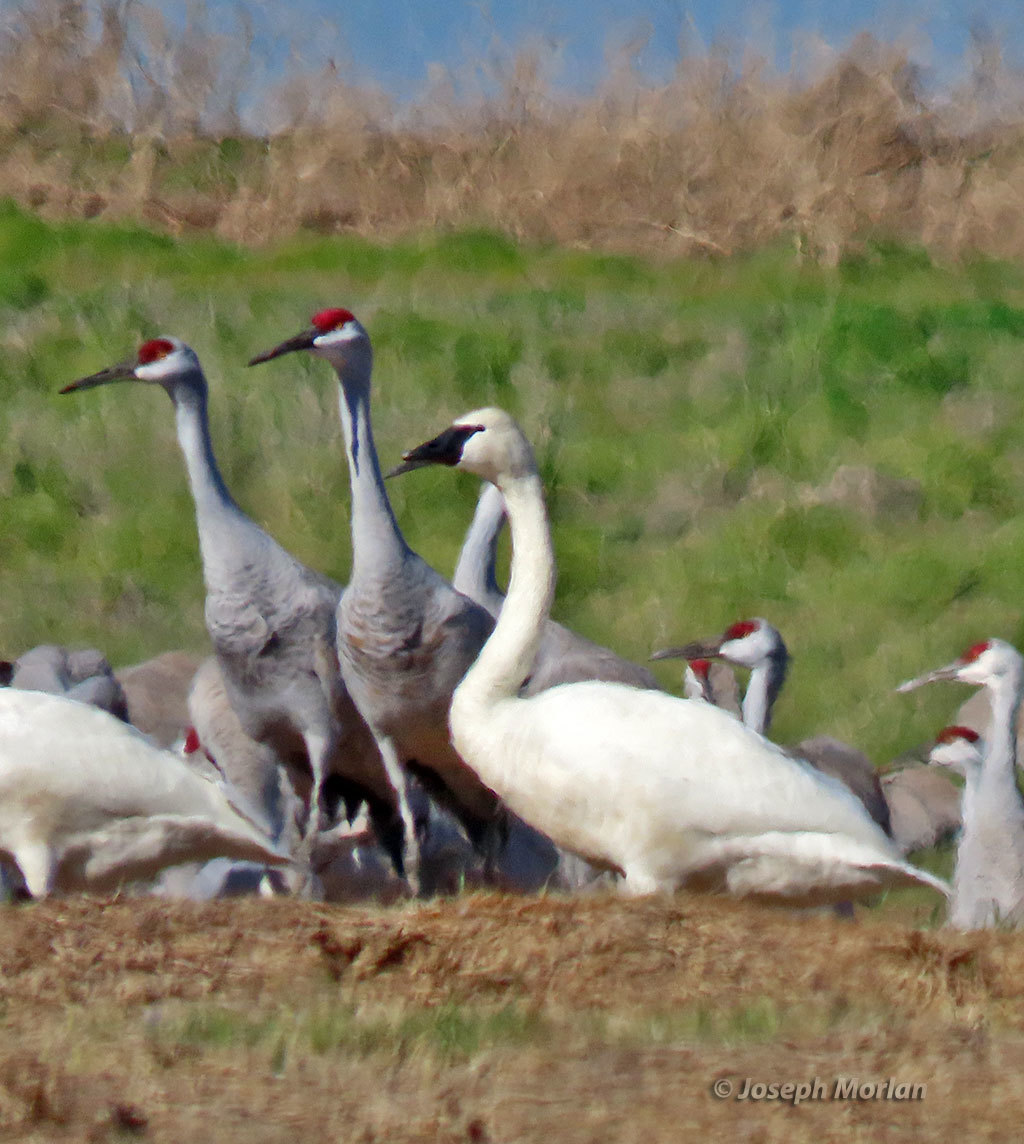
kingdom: Animalia
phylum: Chordata
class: Aves
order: Anseriformes
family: Anatidae
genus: Cygnus
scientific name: Cygnus buccinator
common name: Trumpeter swan
